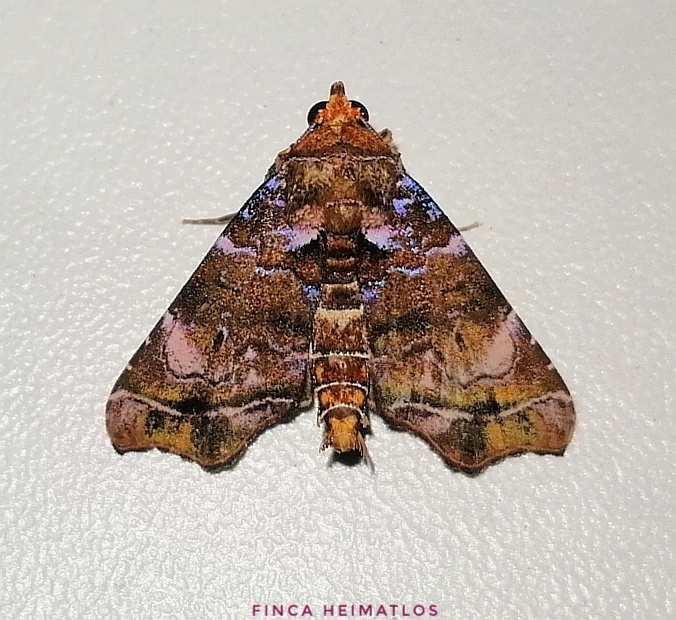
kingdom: Animalia
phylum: Arthropoda
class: Insecta
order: Lepidoptera
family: Erebidae
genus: Cecharismena
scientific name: Cecharismena melicerta
